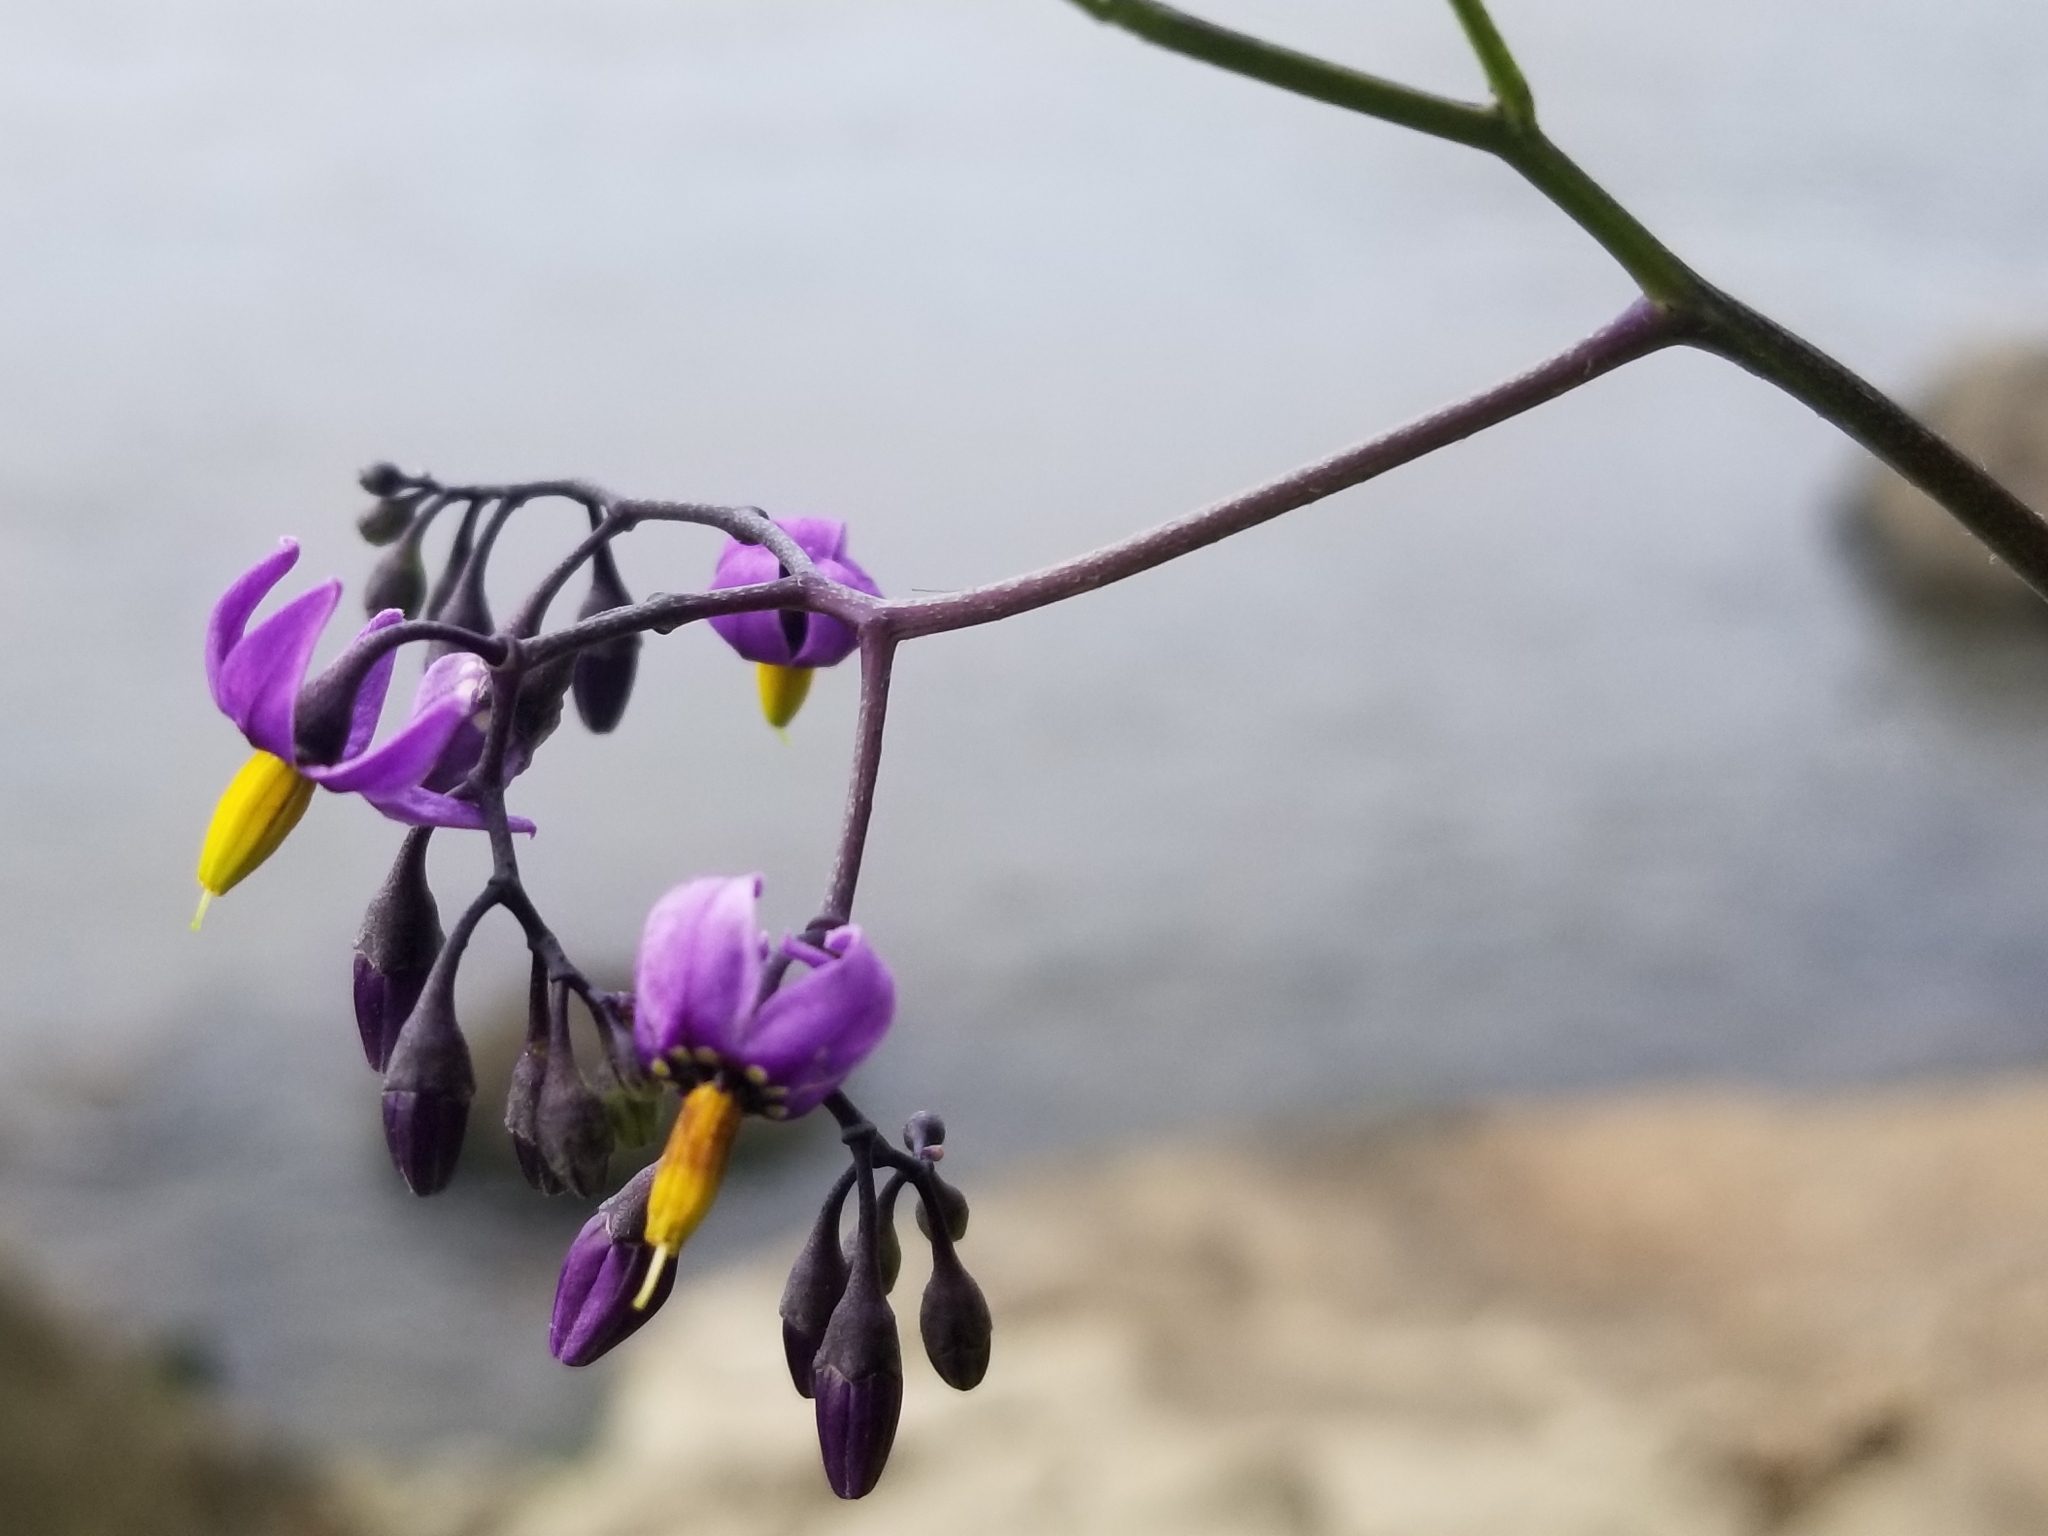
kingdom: Plantae
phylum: Tracheophyta
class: Magnoliopsida
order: Solanales
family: Solanaceae
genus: Solanum
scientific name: Solanum dulcamara
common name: Climbing nightshade
